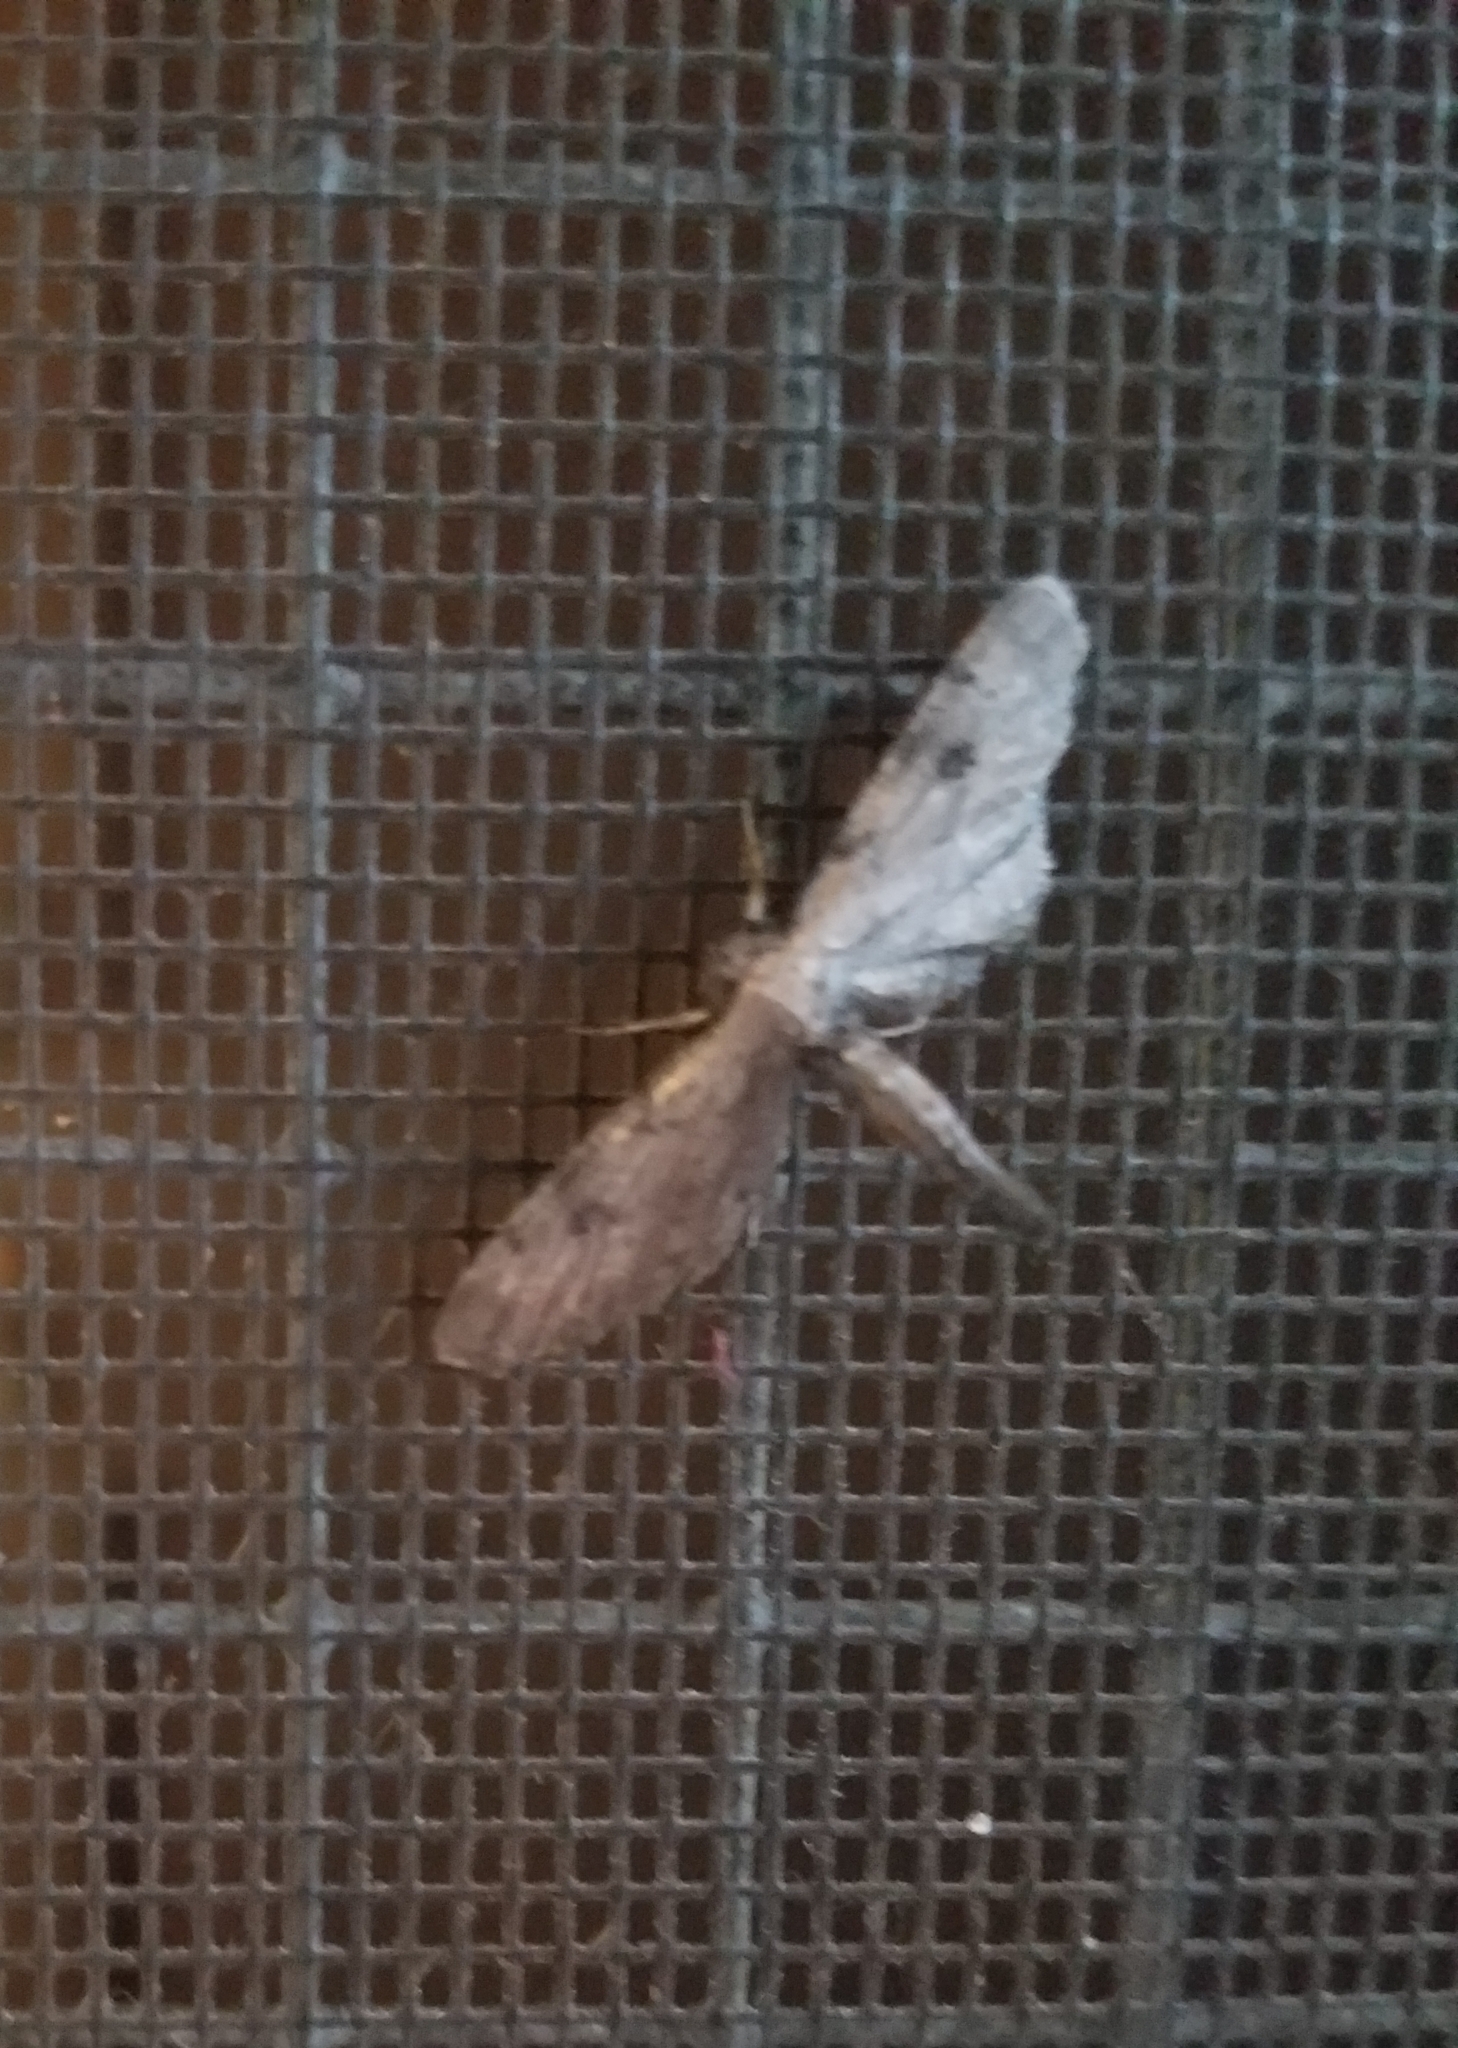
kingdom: Animalia
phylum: Arthropoda
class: Insecta
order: Lepidoptera
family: Geometridae
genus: Tornos
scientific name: Tornos scolopacinaria
